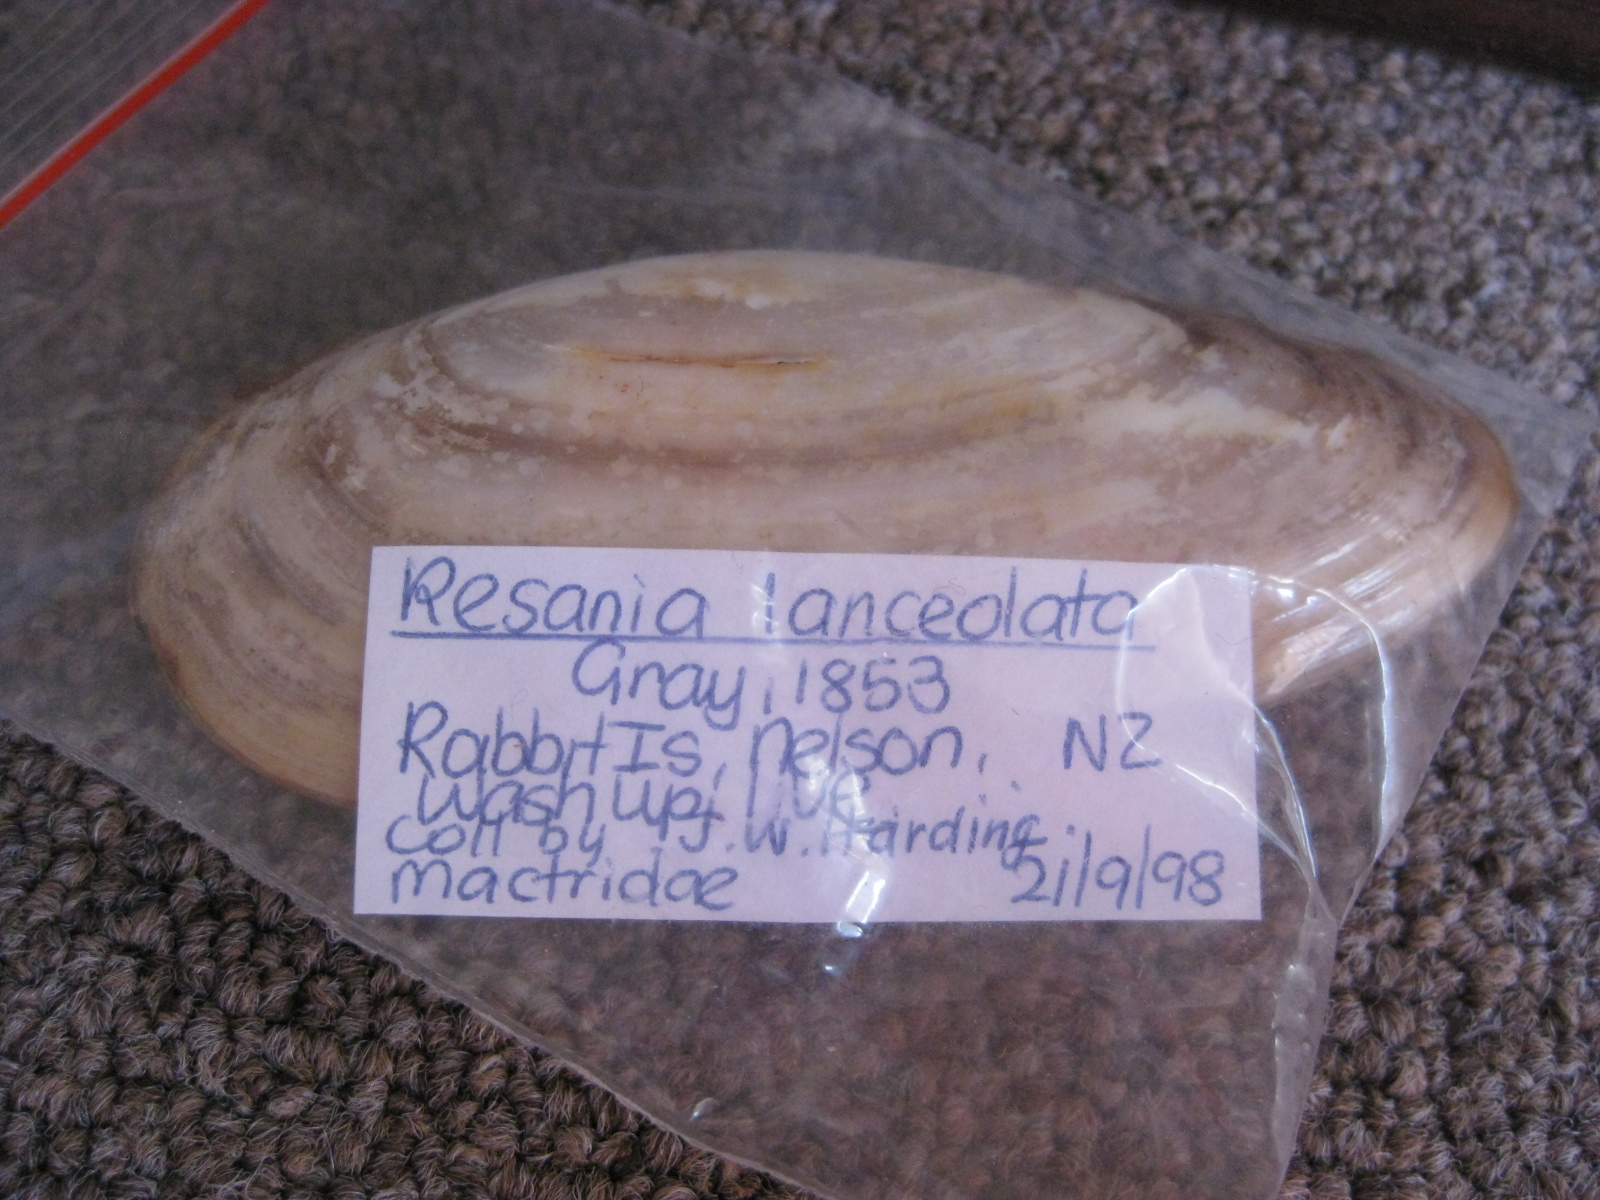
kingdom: Animalia
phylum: Mollusca
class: Bivalvia
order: Venerida
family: Mactridae
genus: Resania
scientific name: Resania lanceolata
